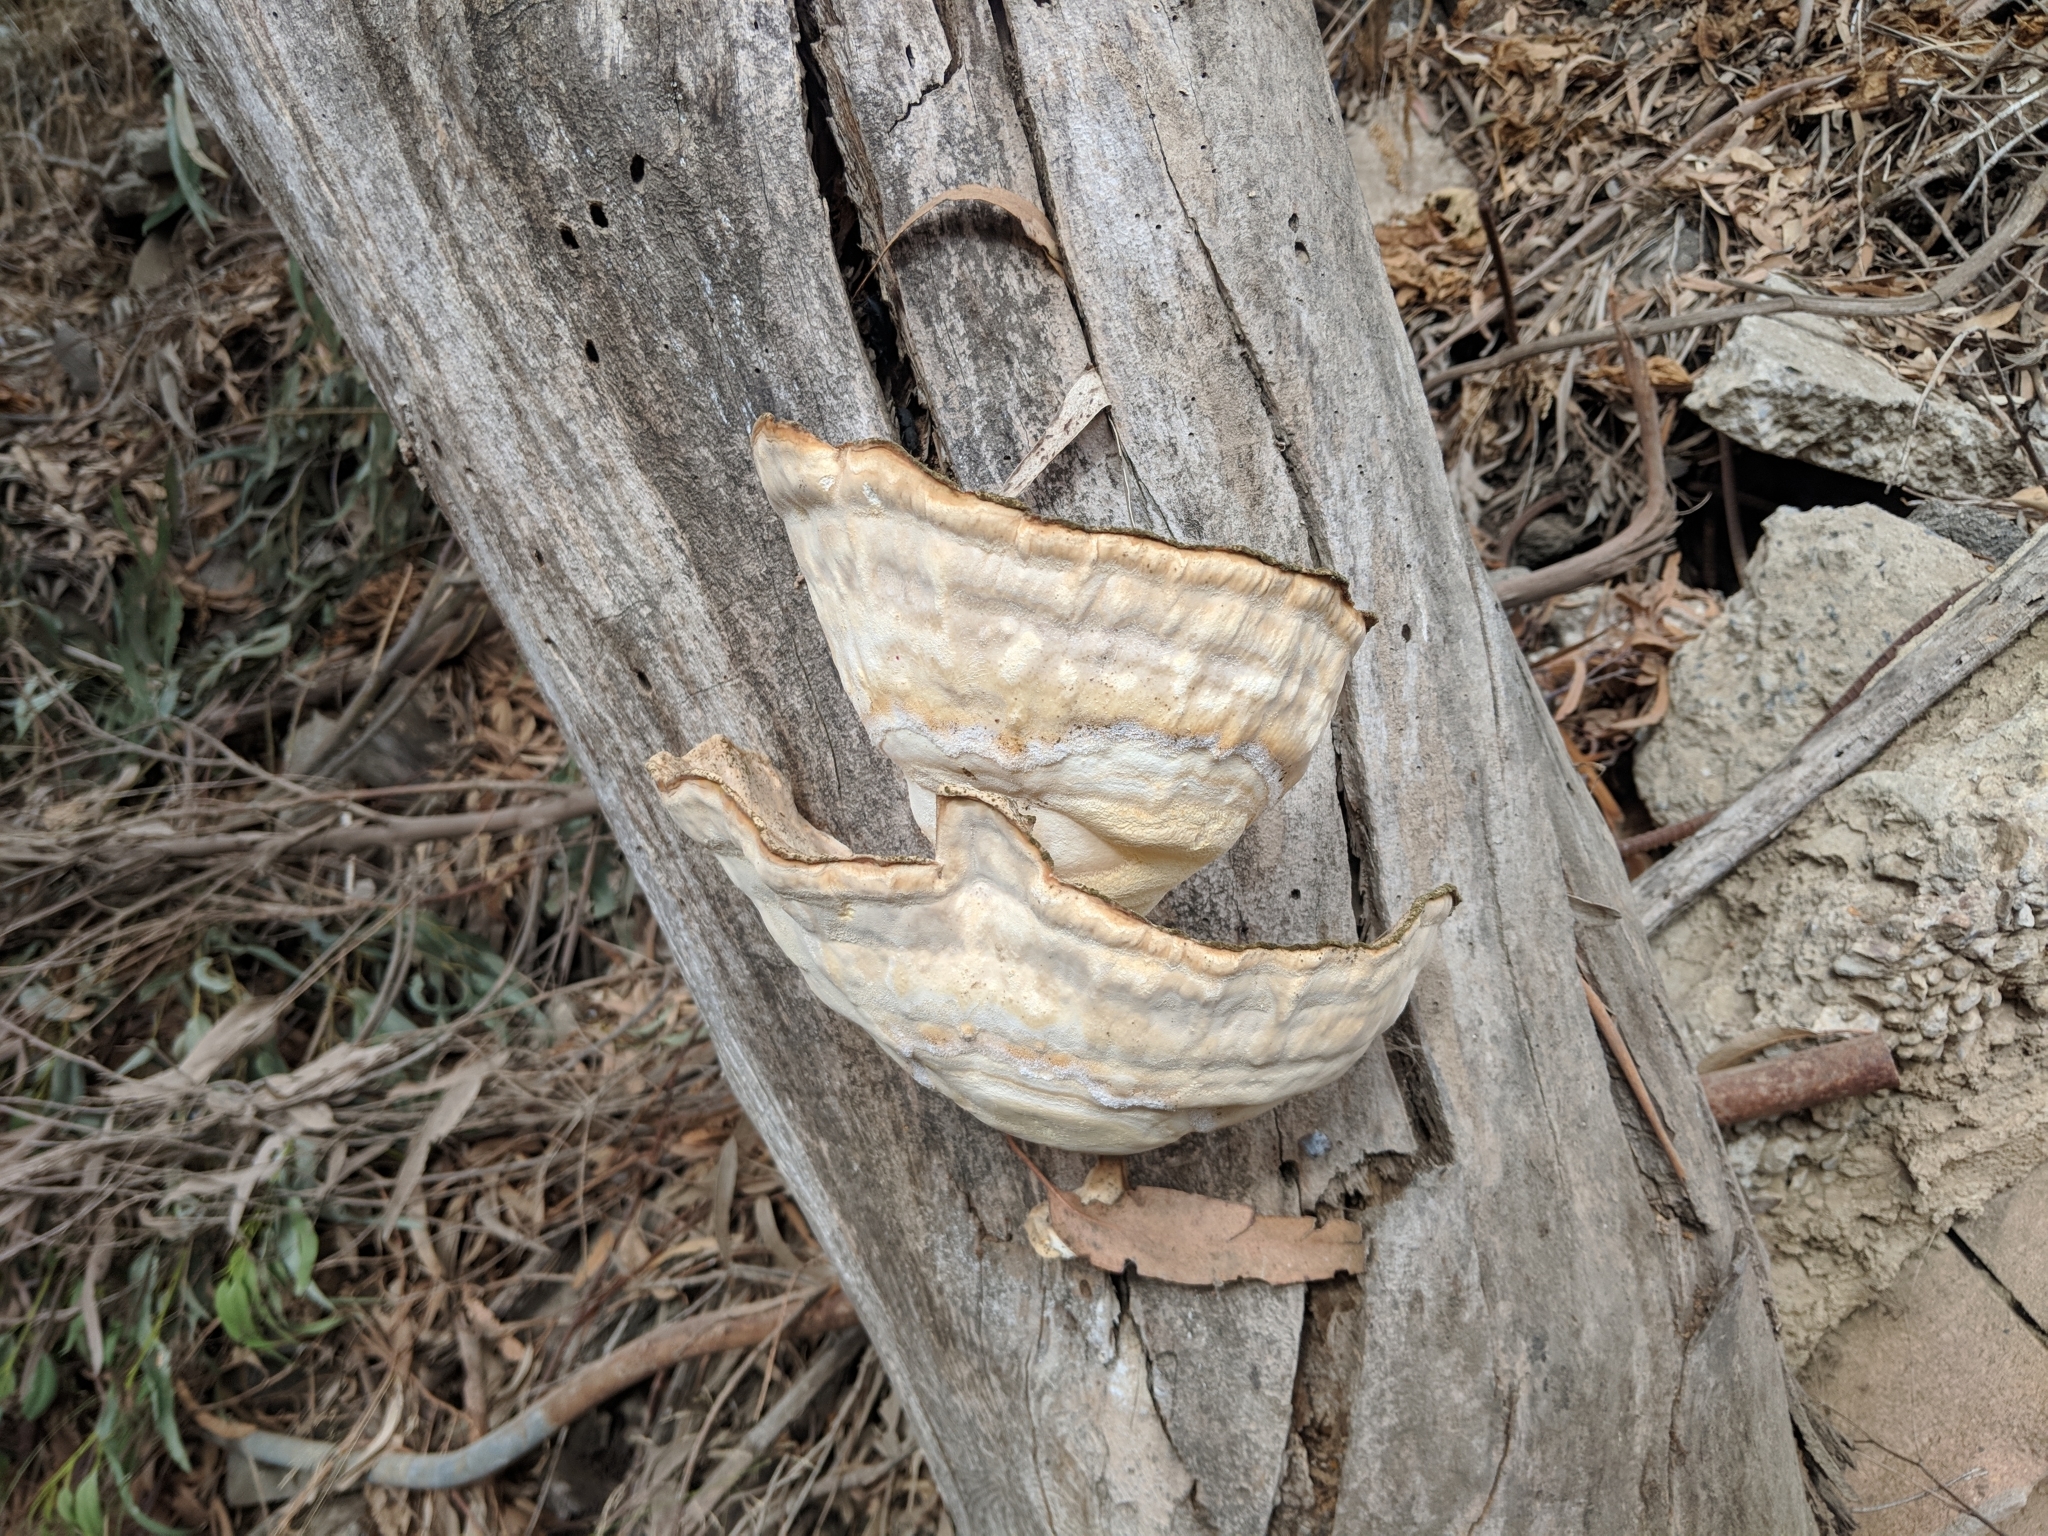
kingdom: Fungi
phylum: Basidiomycota
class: Agaricomycetes
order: Polyporales
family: Laetiporaceae
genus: Laetiporus
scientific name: Laetiporus gilbertsonii
